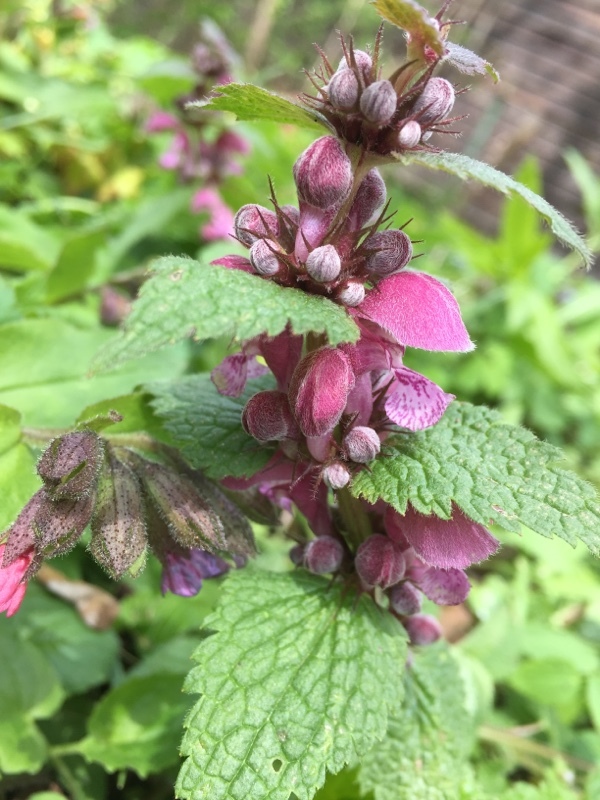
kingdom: Plantae
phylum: Tracheophyta
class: Magnoliopsida
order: Lamiales
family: Lamiaceae
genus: Lamium
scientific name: Lamium maculatum
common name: Spotted dead-nettle
